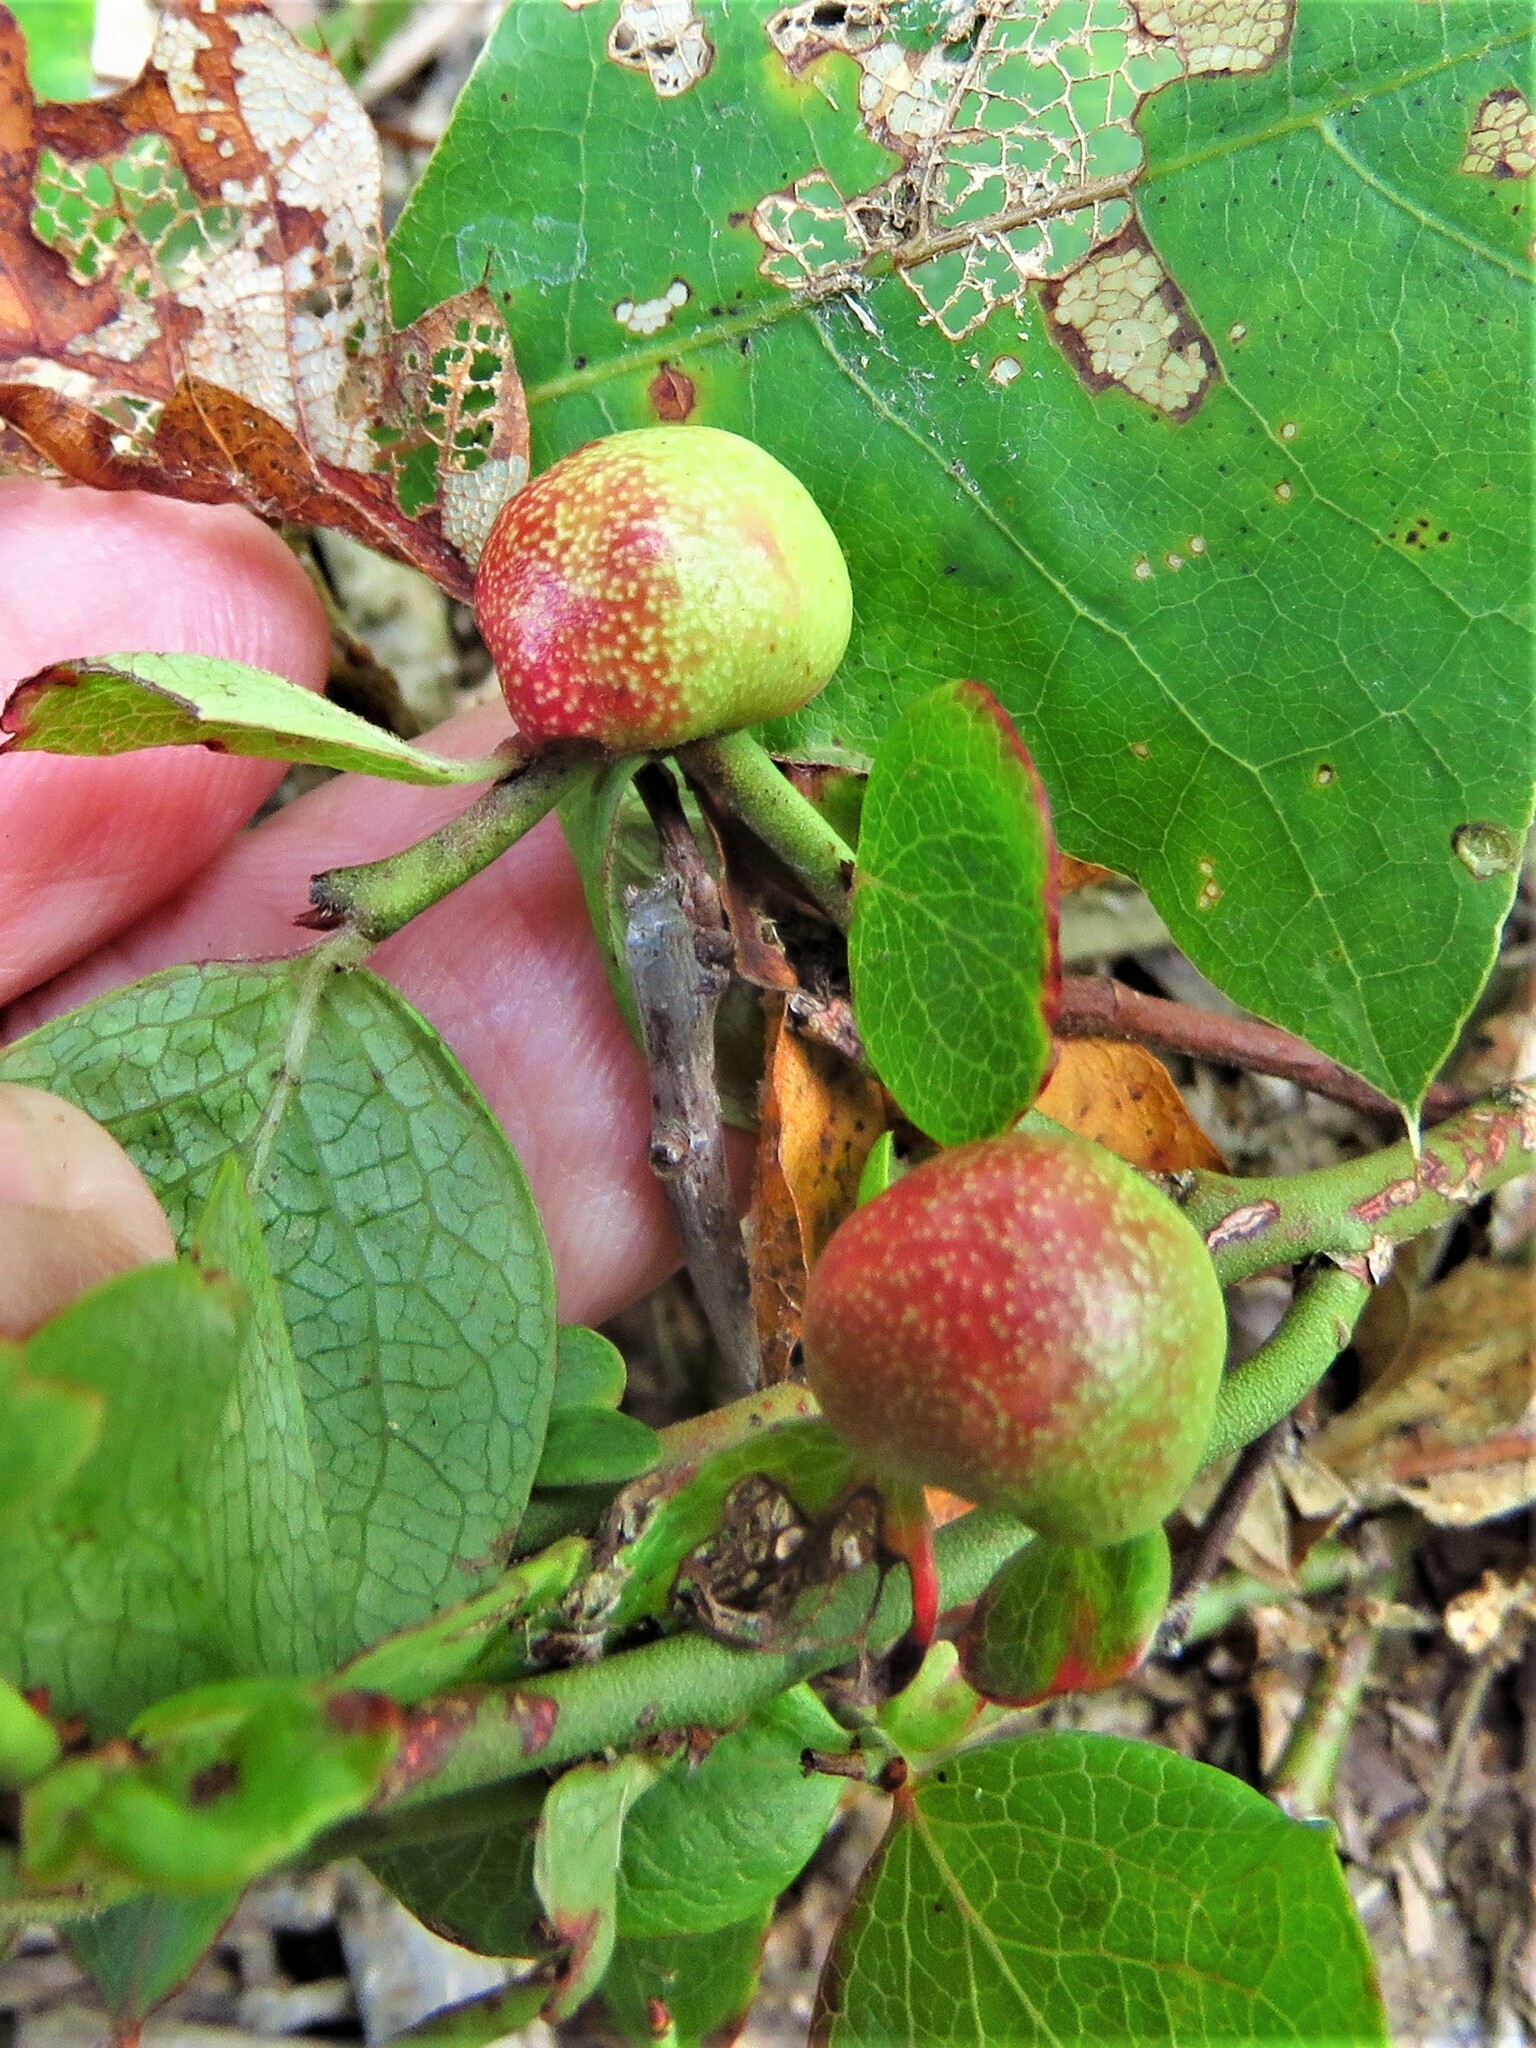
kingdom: Animalia
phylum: Arthropoda
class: Insecta
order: Hymenoptera
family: Pteromalidae
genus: Hemadas
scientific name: Hemadas nubilipennis
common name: Blueberry stem gall wasp
